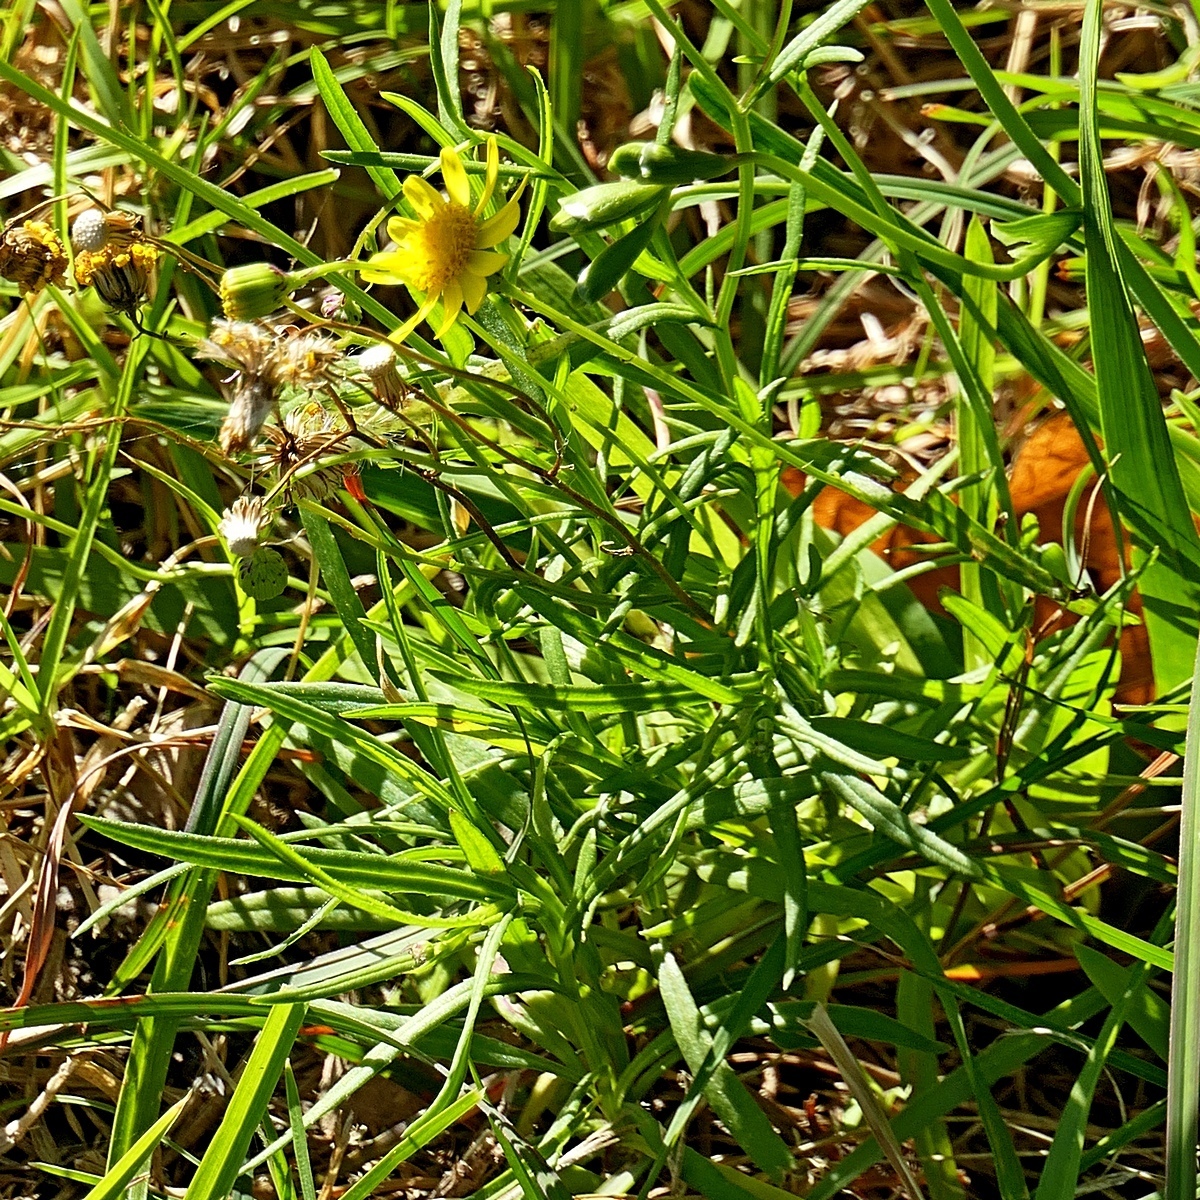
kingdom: Plantae
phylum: Tracheophyta
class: Magnoliopsida
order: Asterales
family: Asteraceae
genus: Senecio
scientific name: Senecio madagascariensis
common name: Madagascar ragwort
